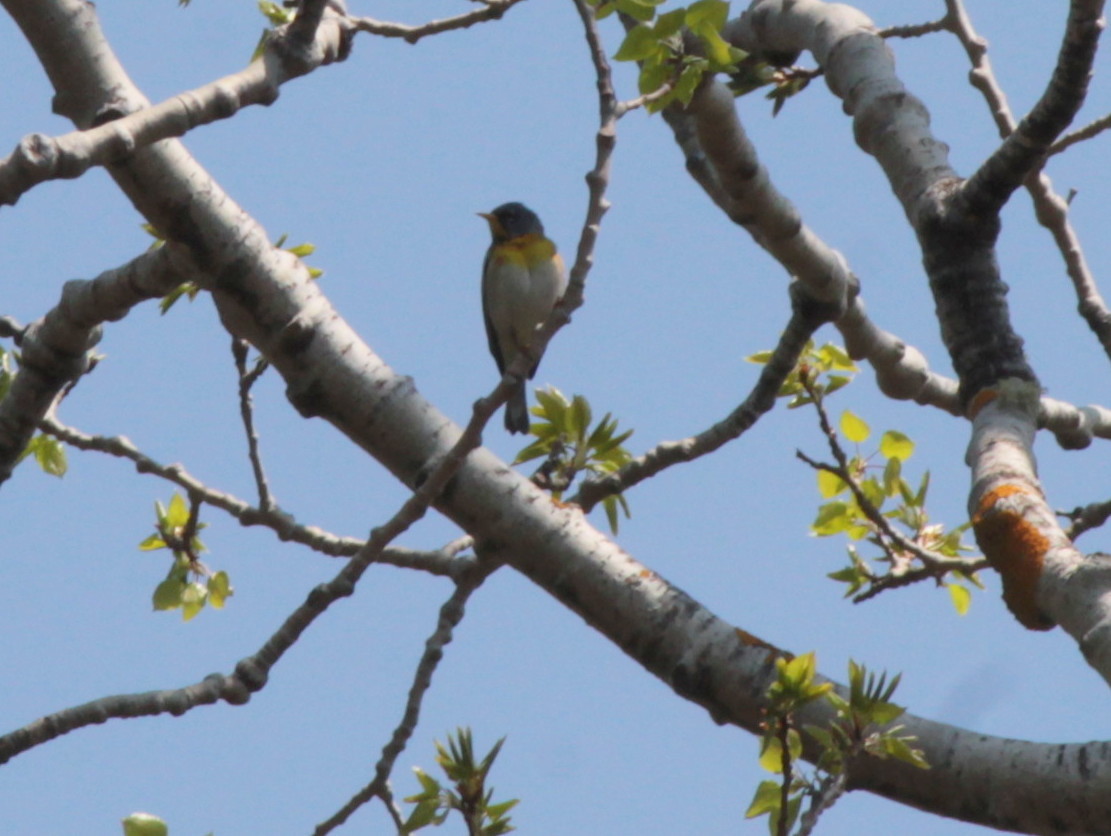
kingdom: Animalia
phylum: Chordata
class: Aves
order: Passeriformes
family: Parulidae
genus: Setophaga
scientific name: Setophaga americana
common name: Northern parula
